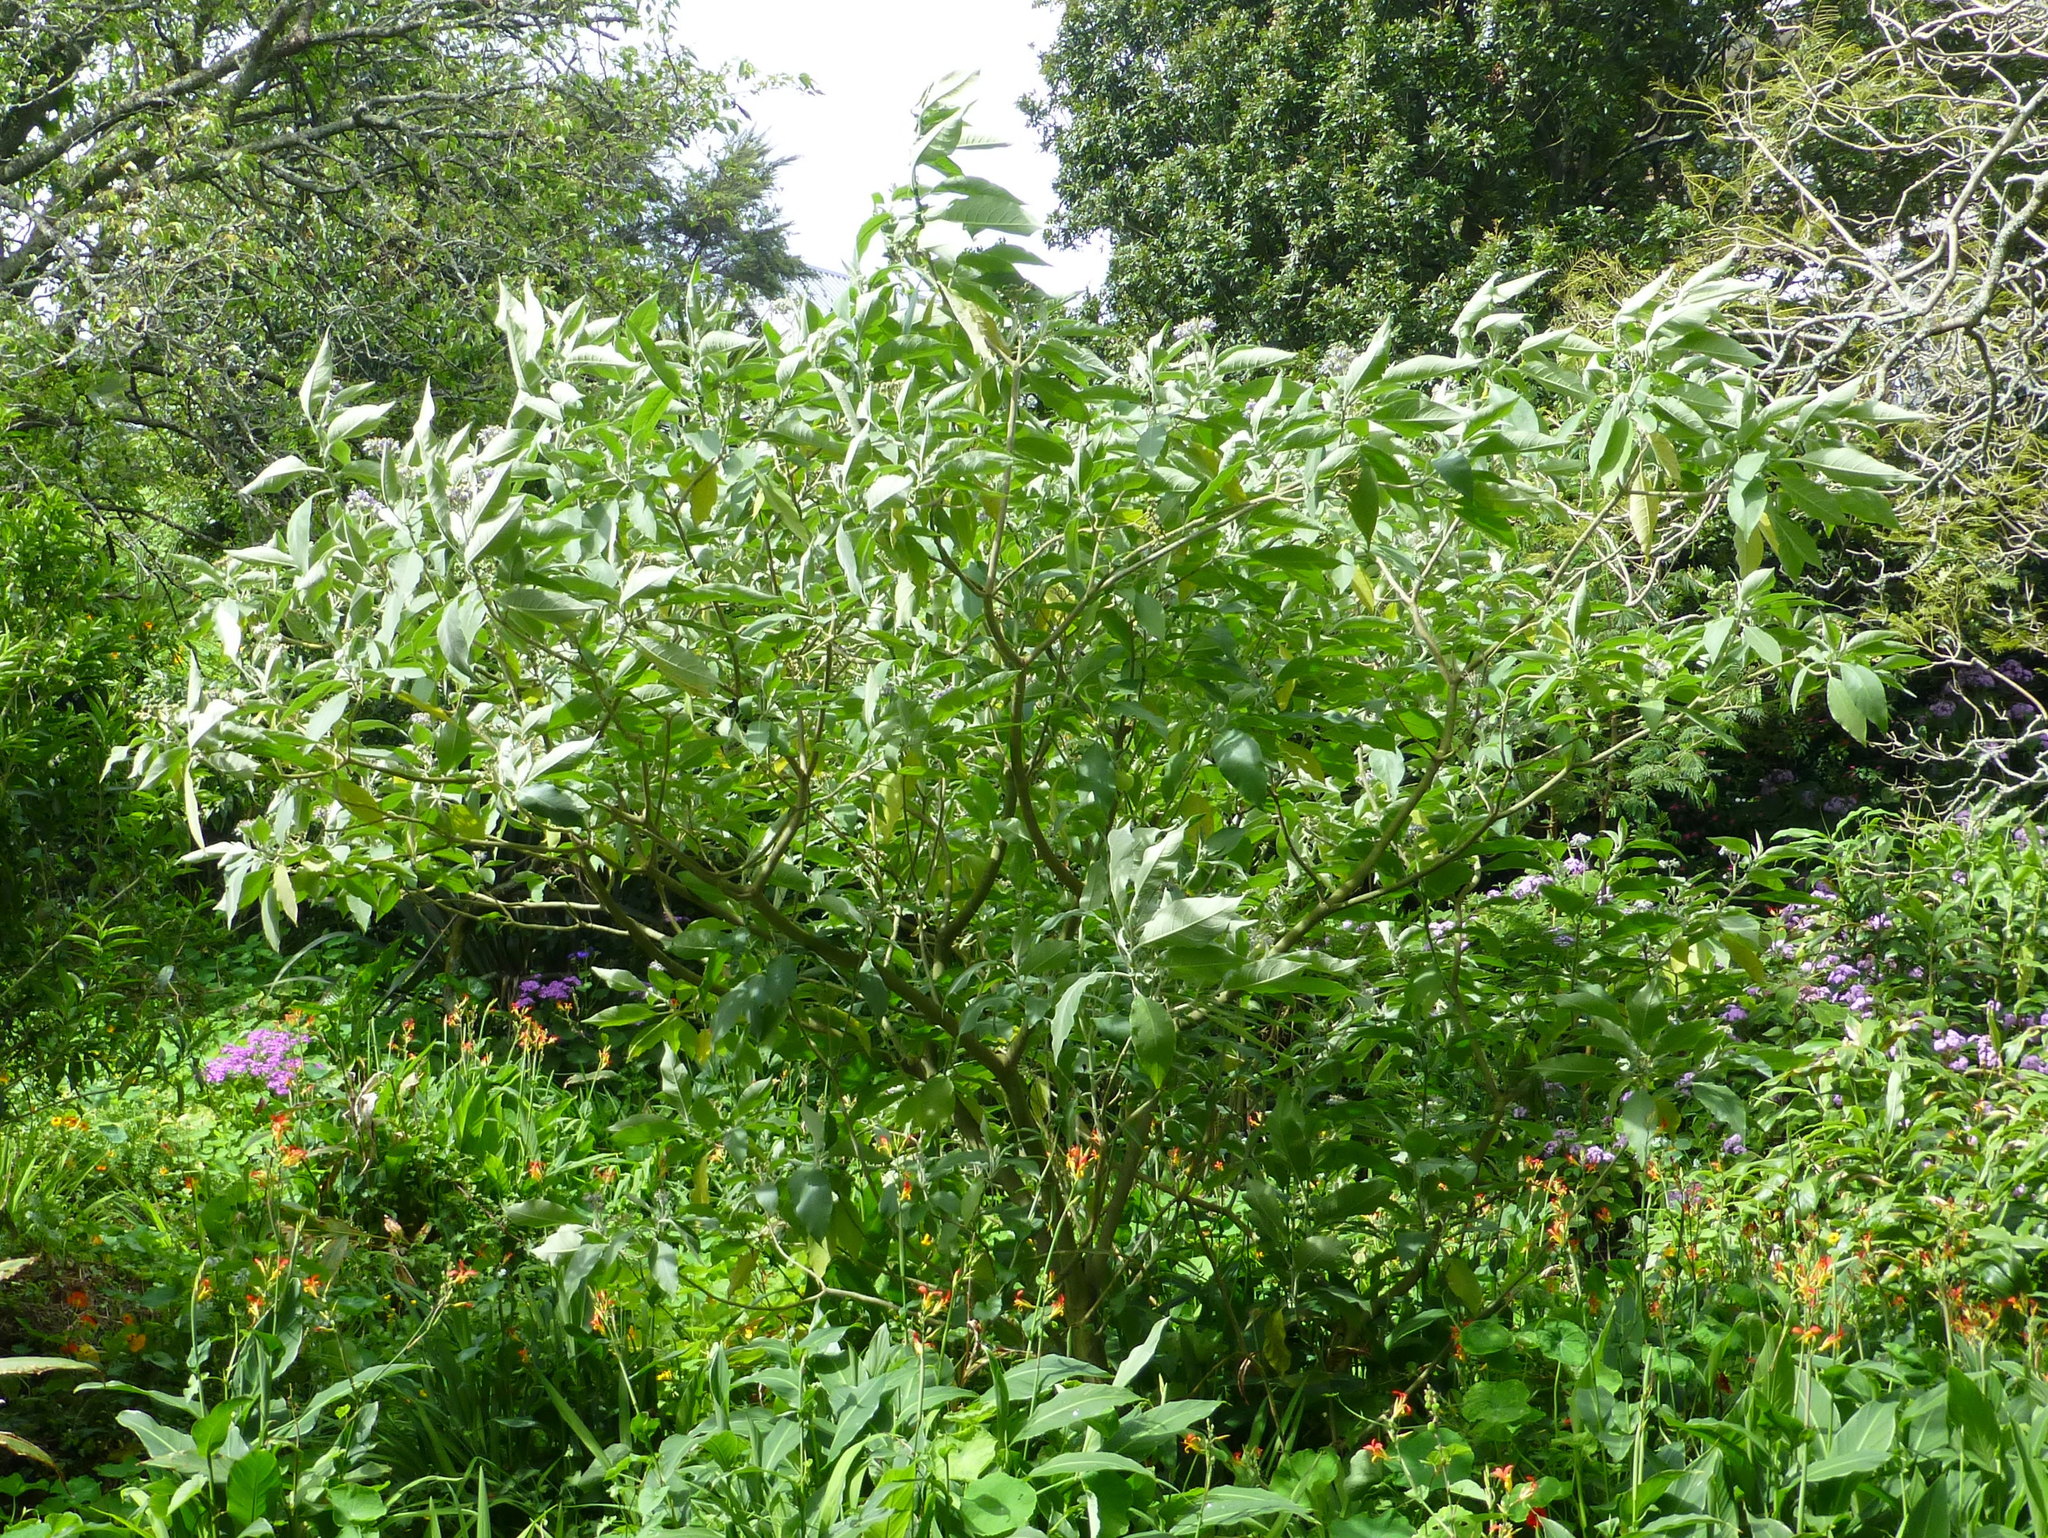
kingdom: Plantae
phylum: Tracheophyta
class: Magnoliopsida
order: Solanales
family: Solanaceae
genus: Solanum
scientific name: Solanum mauritianum
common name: Earleaf nightshade
